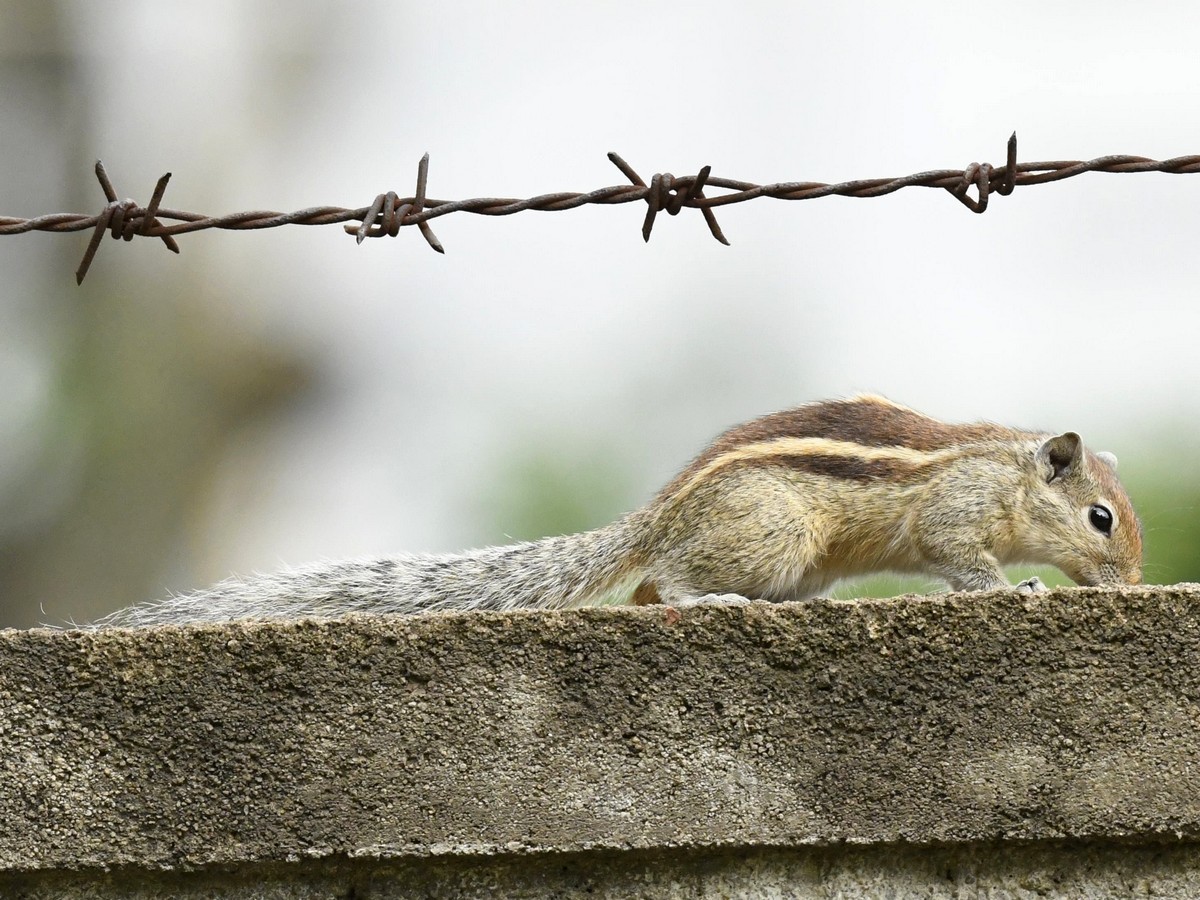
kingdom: Animalia
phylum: Chordata
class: Mammalia
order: Rodentia
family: Sciuridae
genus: Funambulus
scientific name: Funambulus palmarum
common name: Indian palm squirrel
